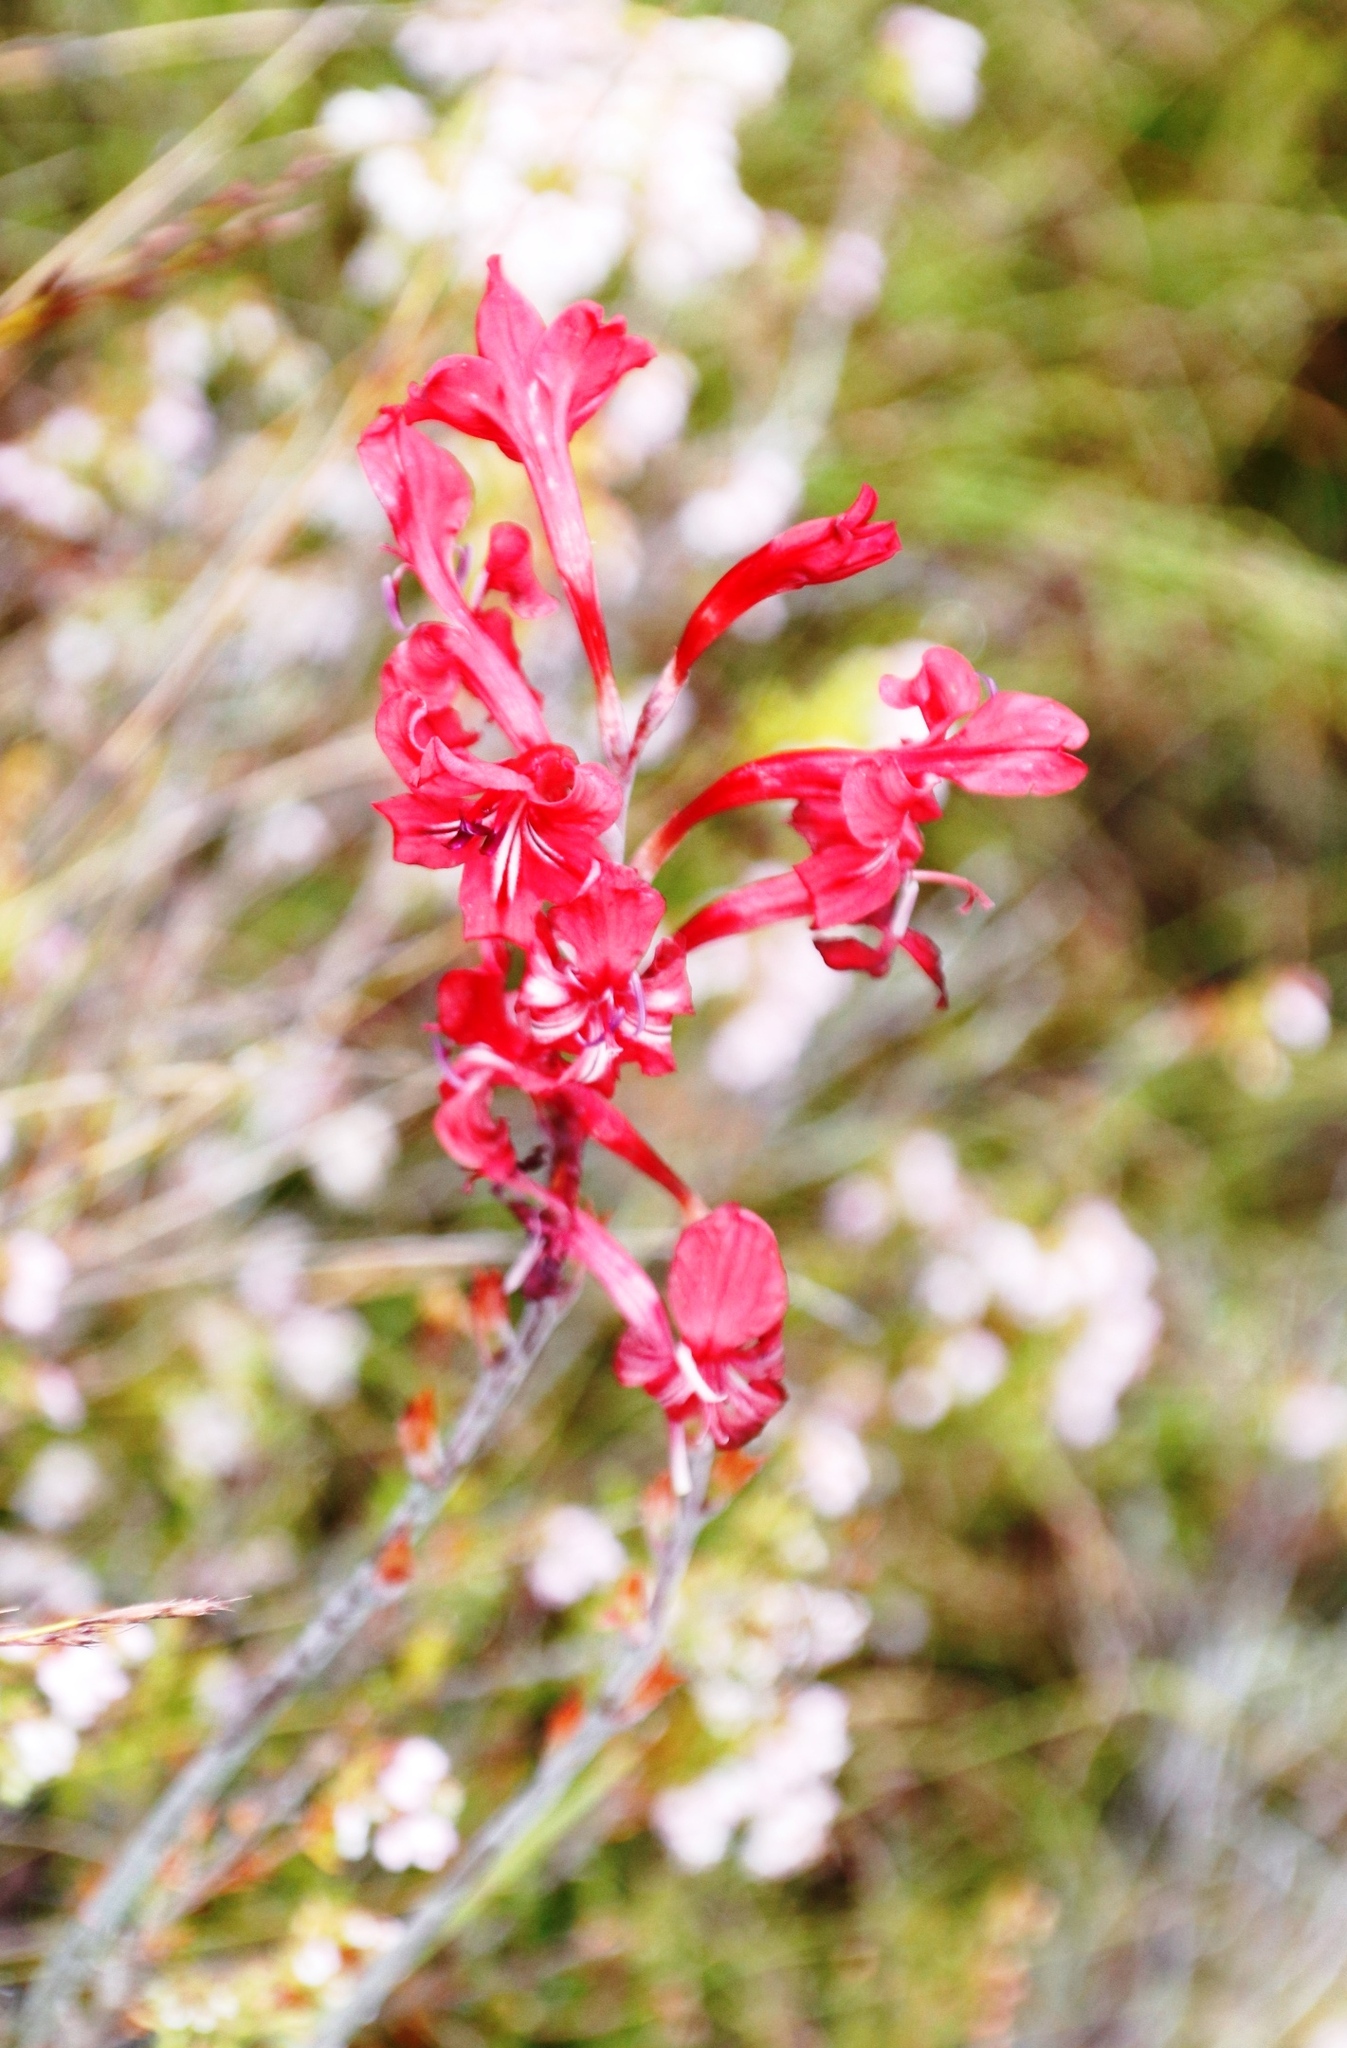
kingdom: Plantae
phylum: Tracheophyta
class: Liliopsida
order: Asparagales
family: Iridaceae
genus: Tritoniopsis
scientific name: Tritoniopsis pulchra
